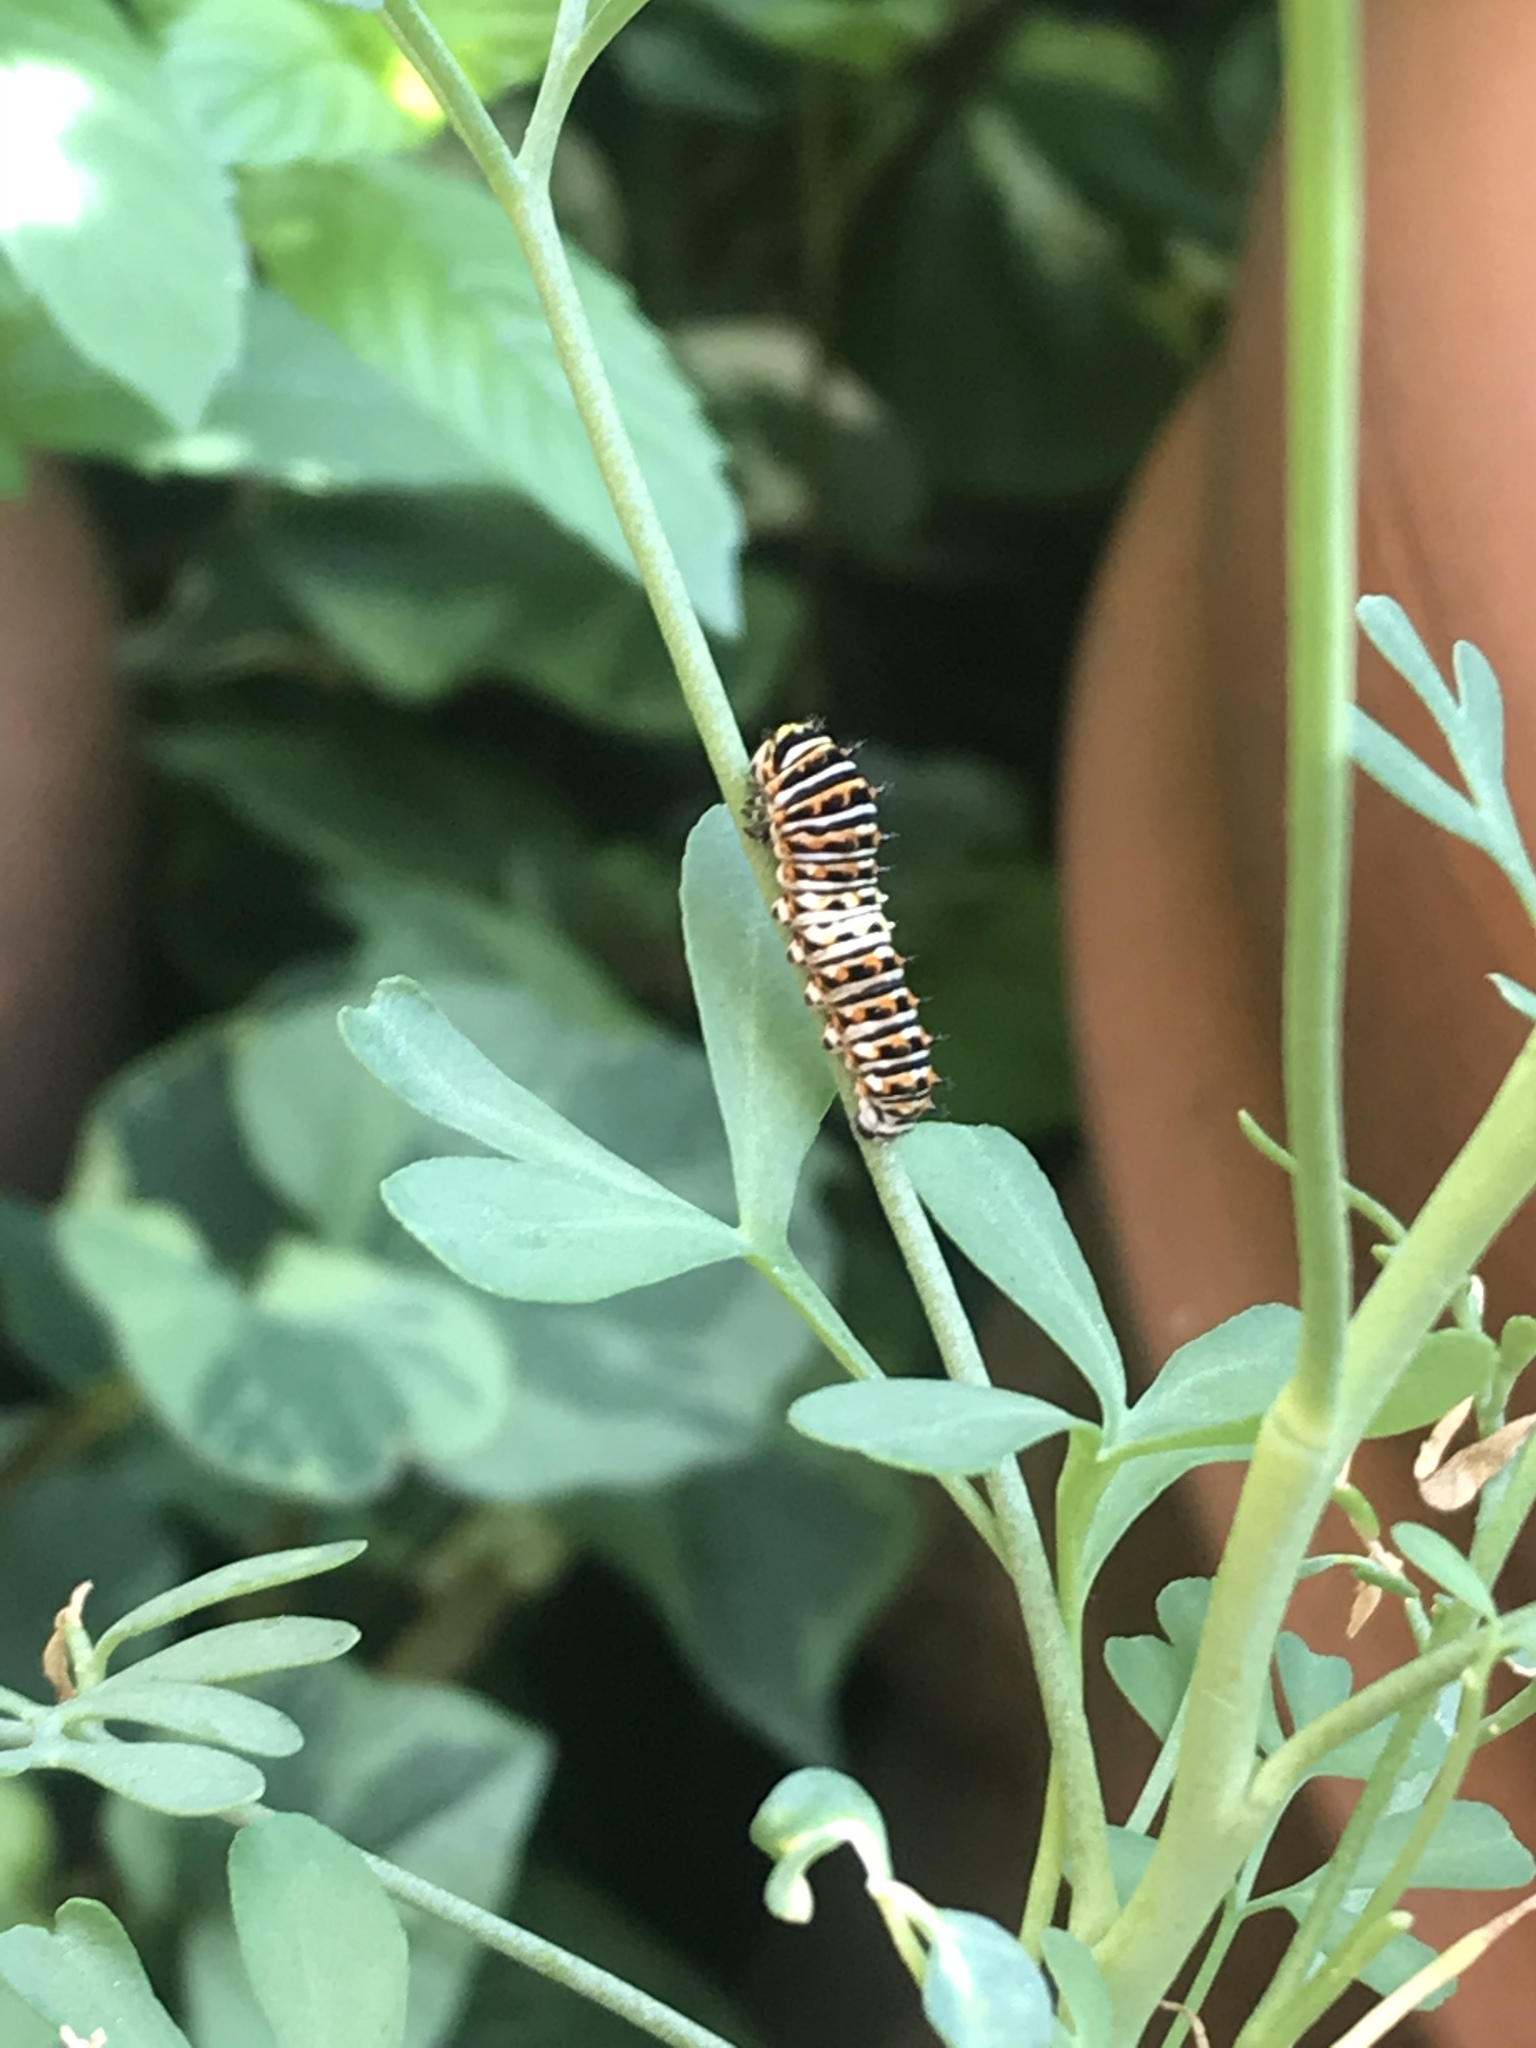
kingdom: Animalia
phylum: Arthropoda
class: Insecta
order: Lepidoptera
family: Papilionidae
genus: Papilio
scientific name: Papilio polyxenes
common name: Black swallowtail
